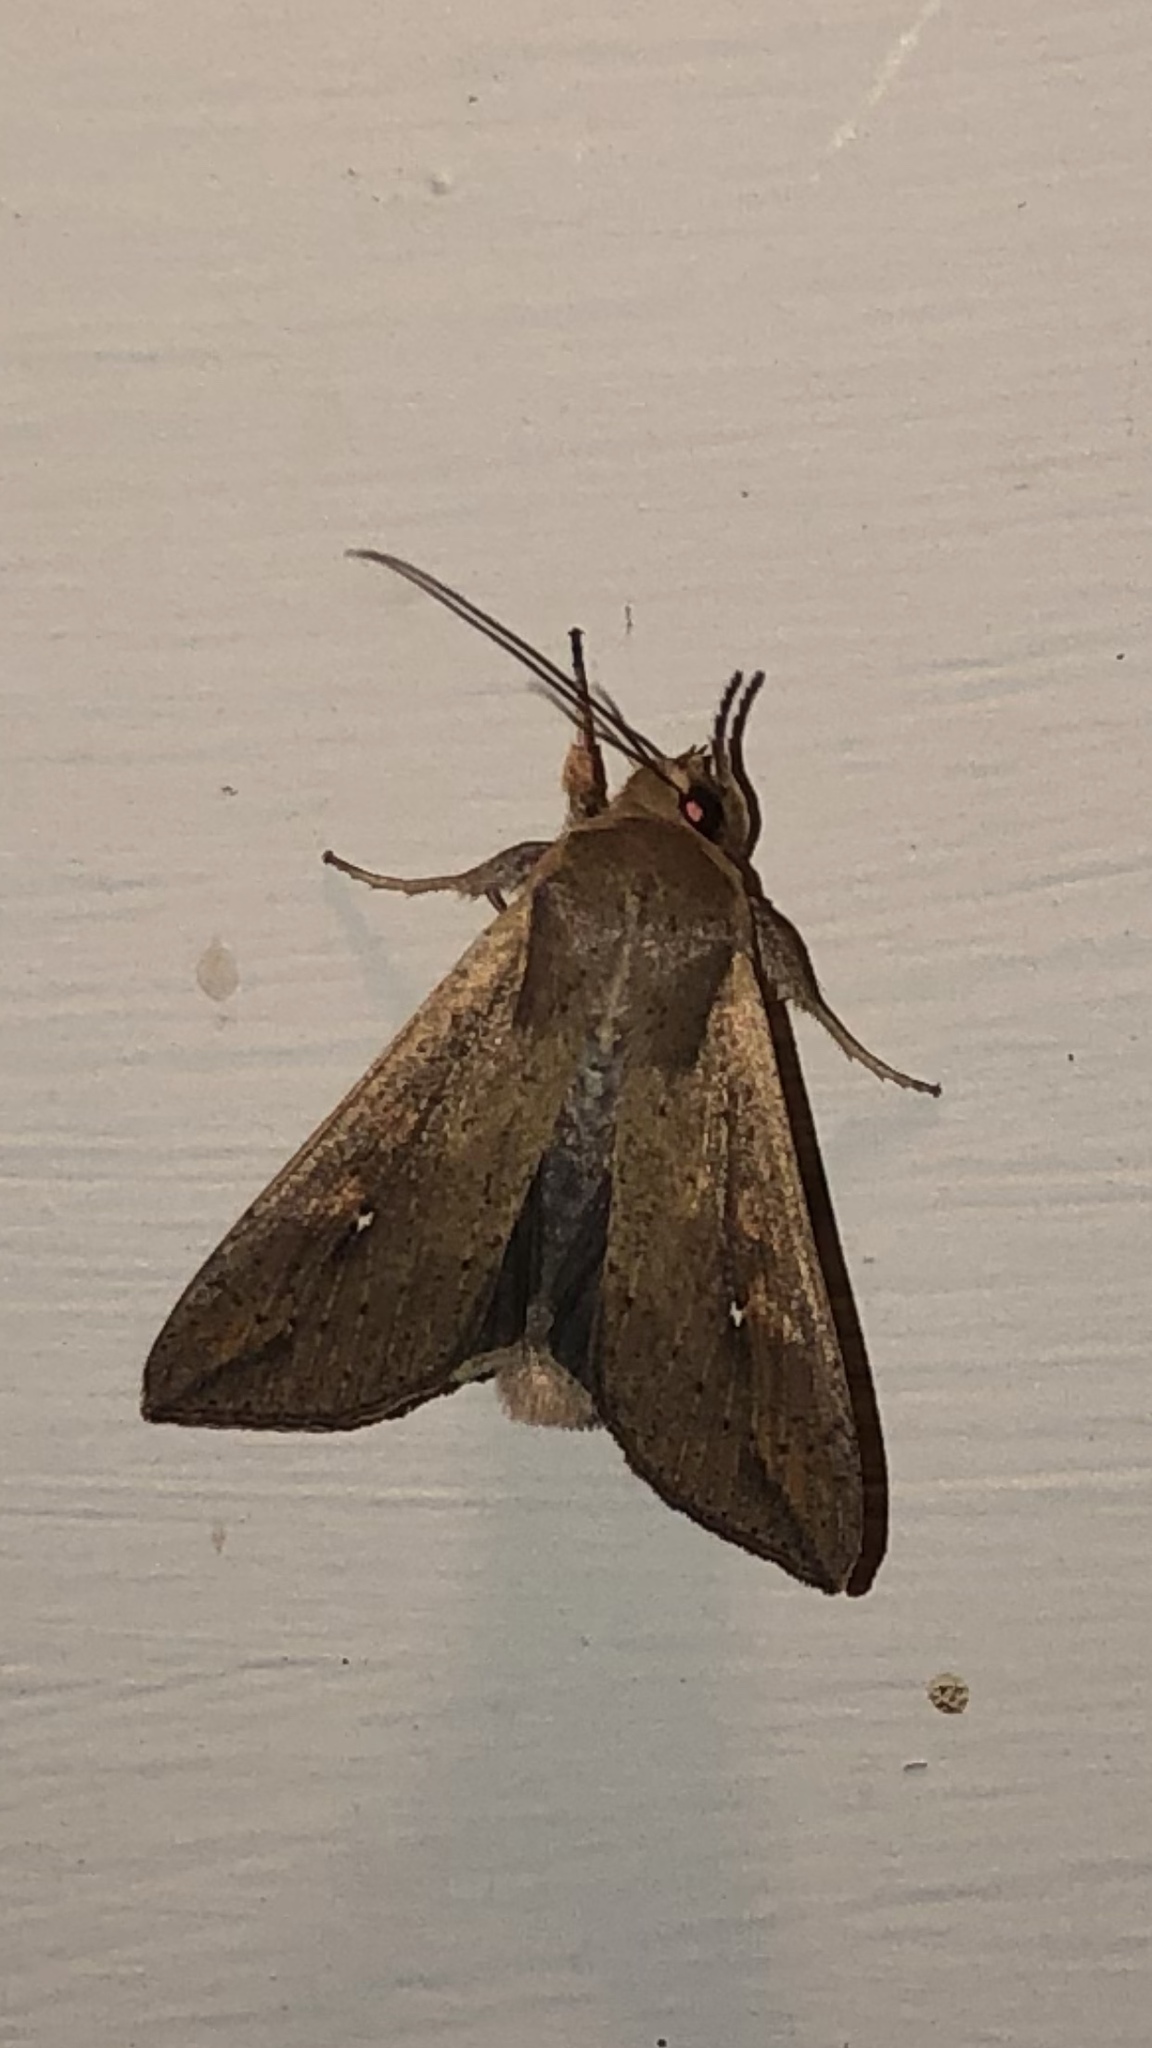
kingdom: Animalia
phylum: Arthropoda
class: Insecta
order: Lepidoptera
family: Noctuidae
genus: Mythimna
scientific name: Mythimna unipuncta
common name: White-speck
